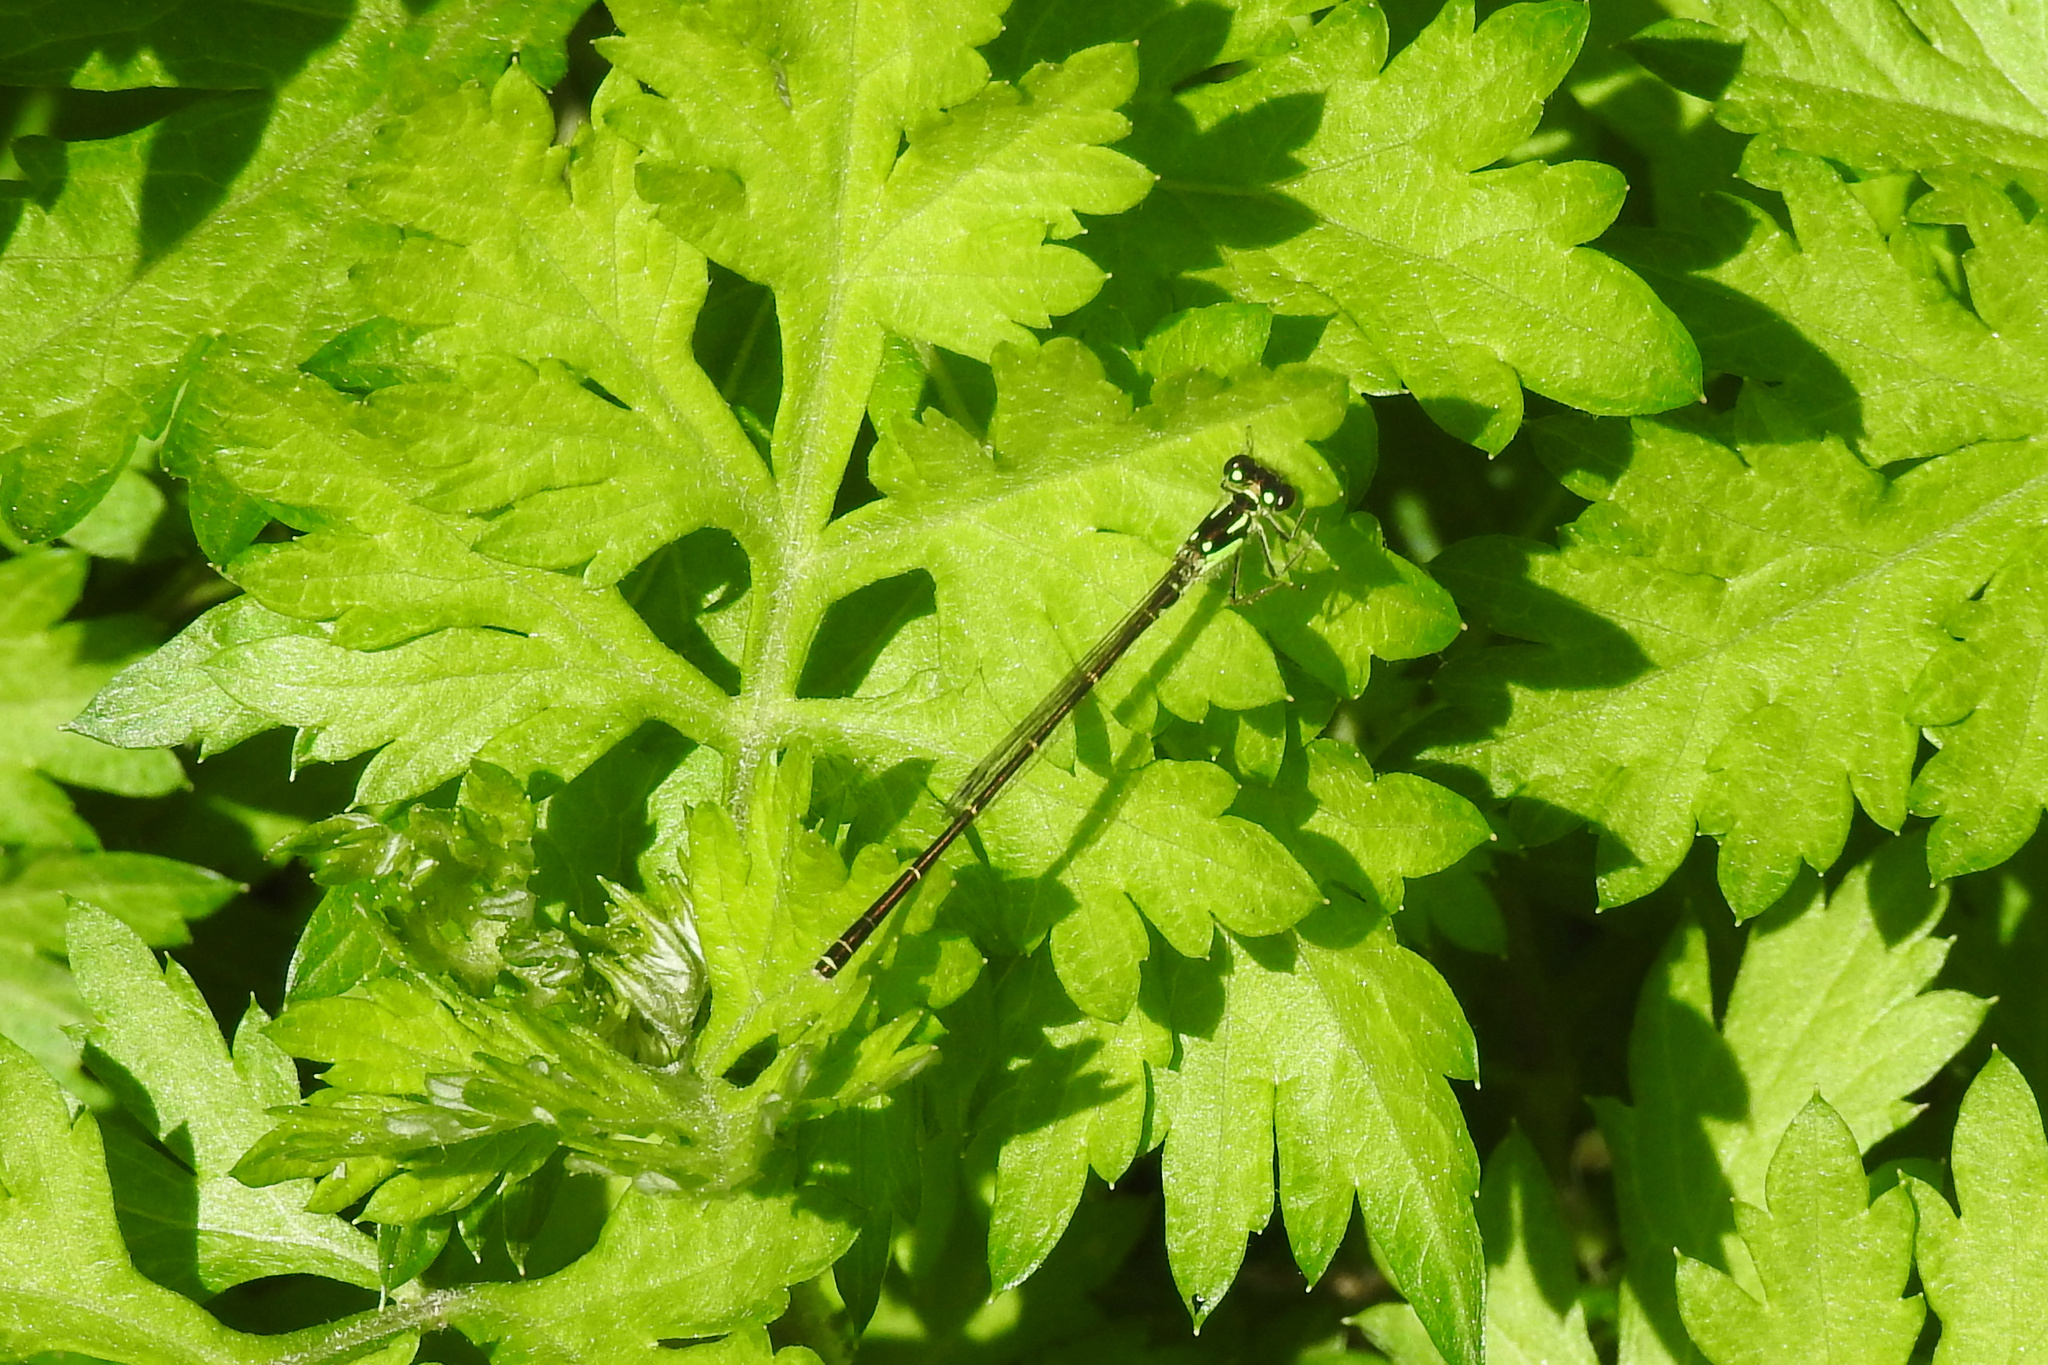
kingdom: Animalia
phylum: Arthropoda
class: Insecta
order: Odonata
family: Coenagrionidae
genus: Ischnura
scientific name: Ischnura posita
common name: Fragile forktail
